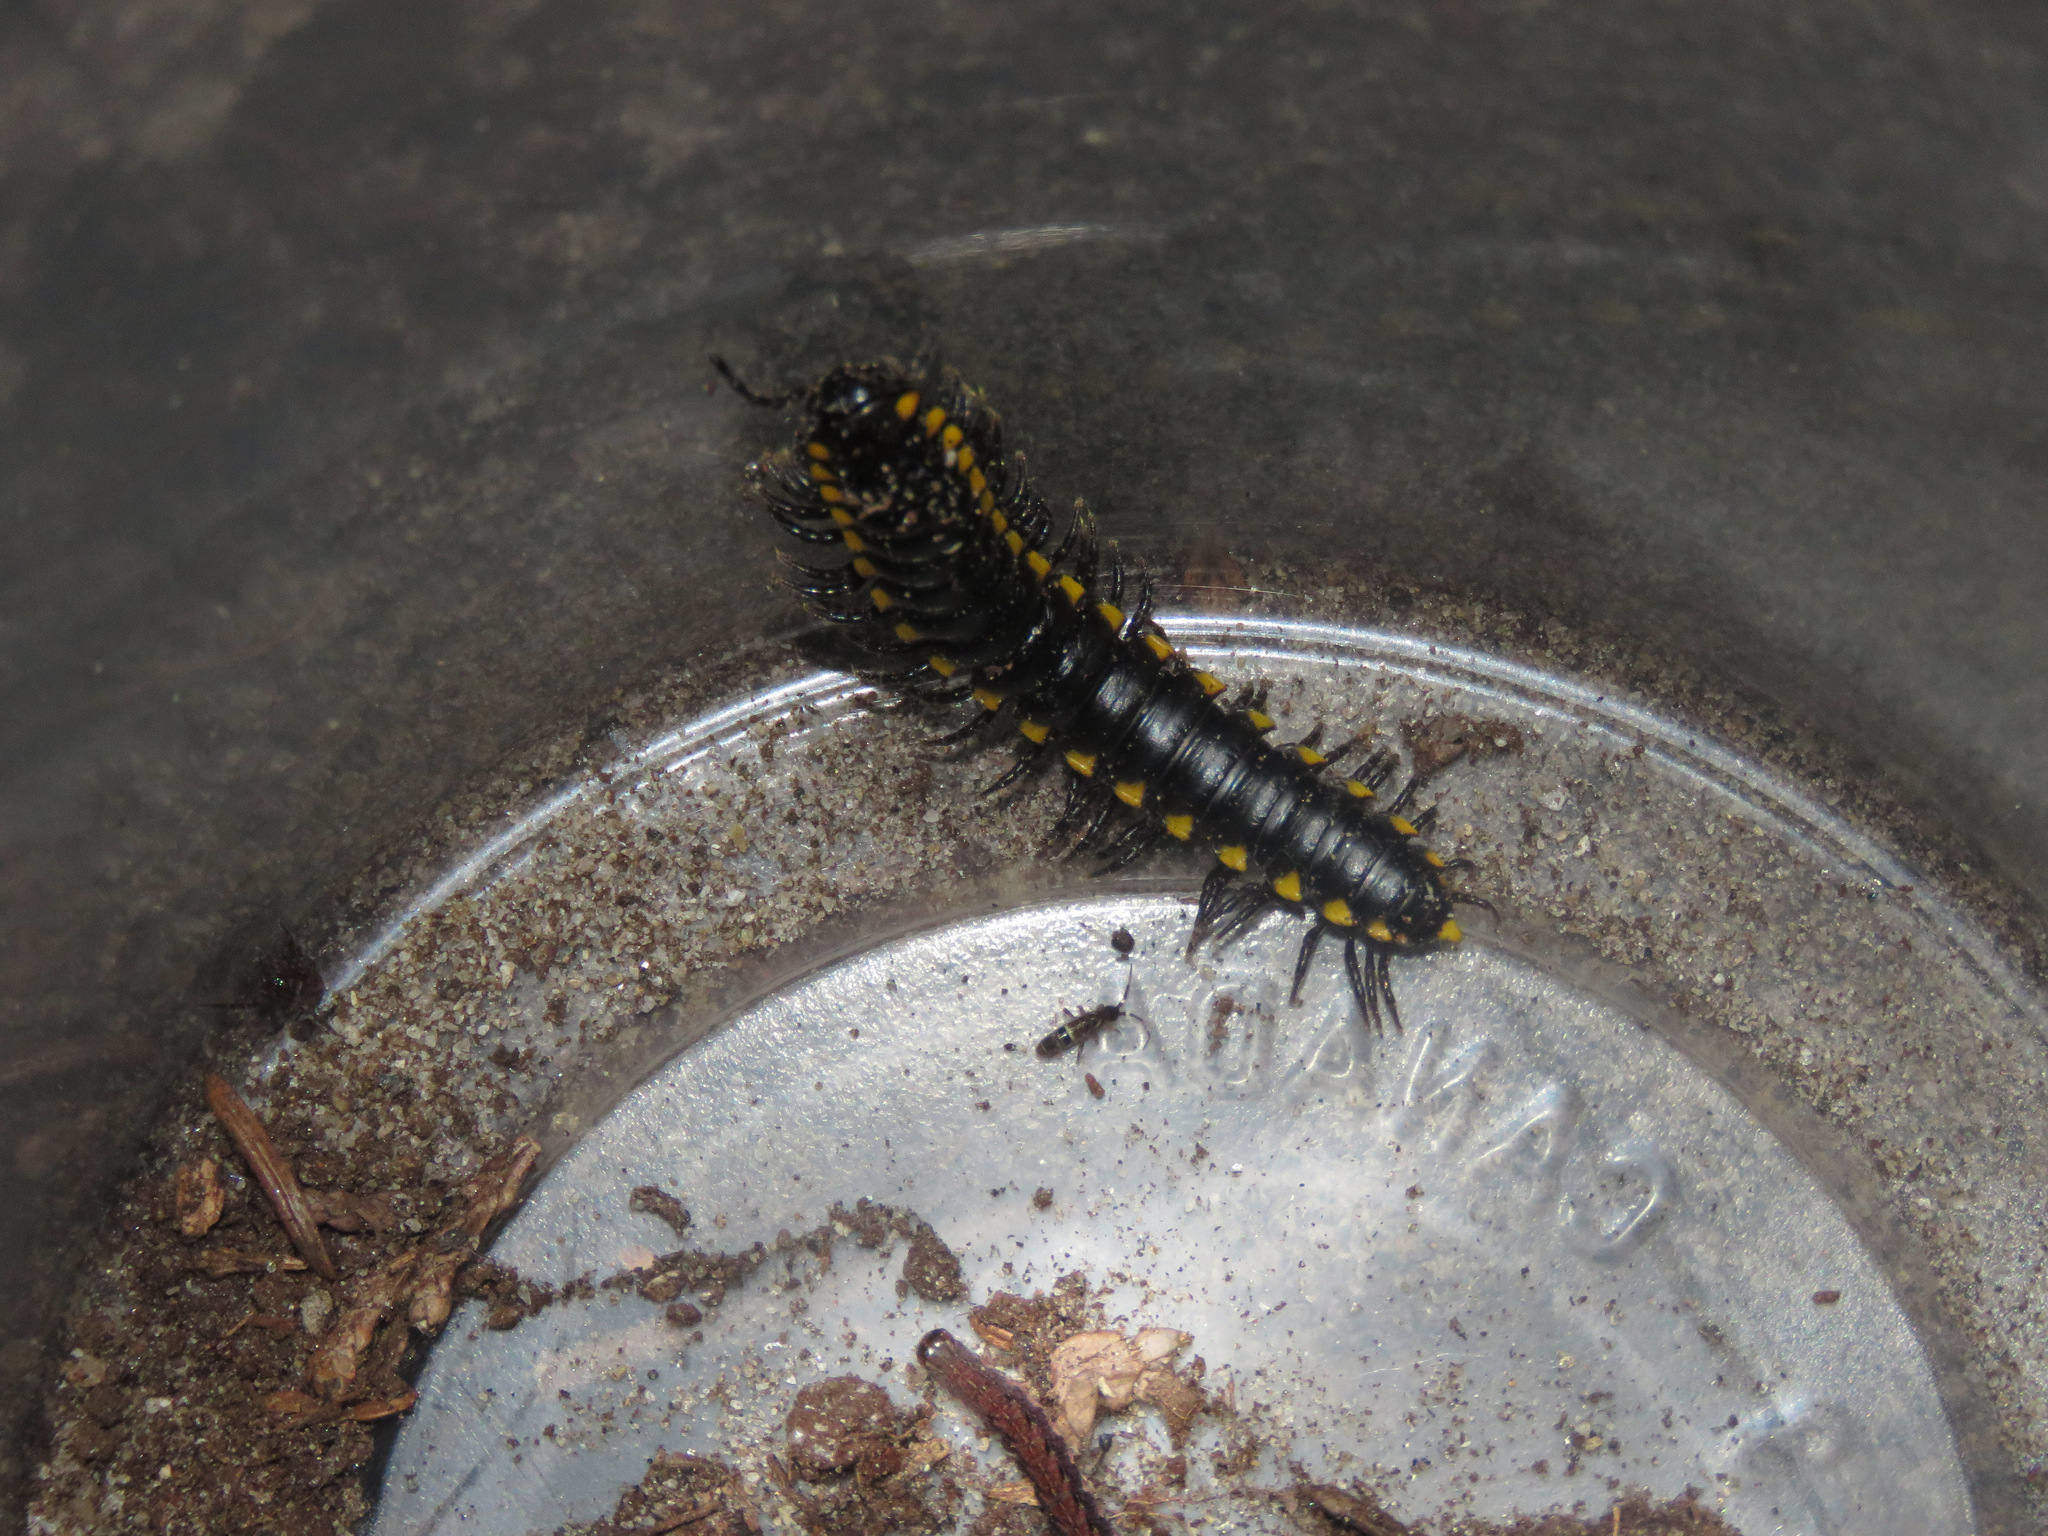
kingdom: Animalia
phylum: Arthropoda
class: Diplopoda
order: Polydesmida
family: Xystodesmidae
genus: Harpaphe
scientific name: Harpaphe haydeniana
